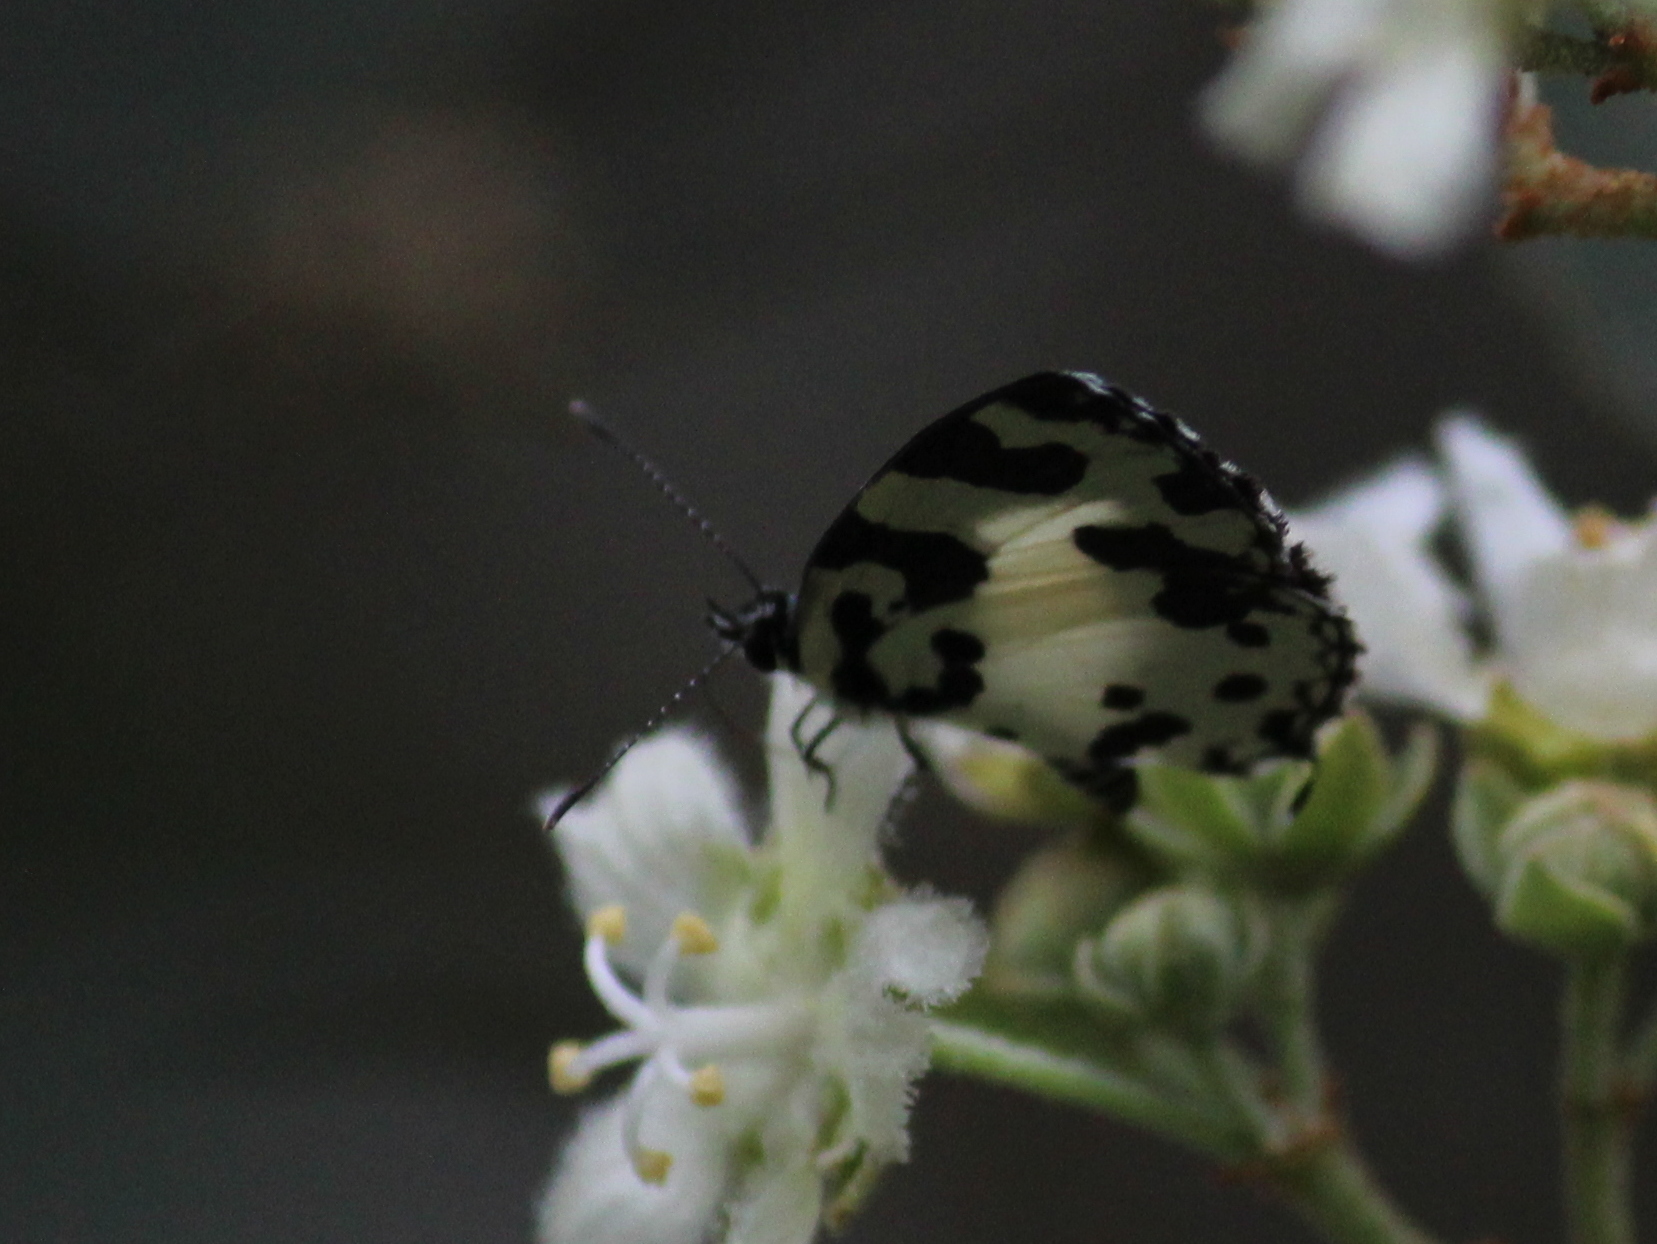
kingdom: Animalia
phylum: Arthropoda
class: Insecta
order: Lepidoptera
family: Lycaenidae
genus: Caleta
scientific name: Caleta decidia
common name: Angled pierrot
